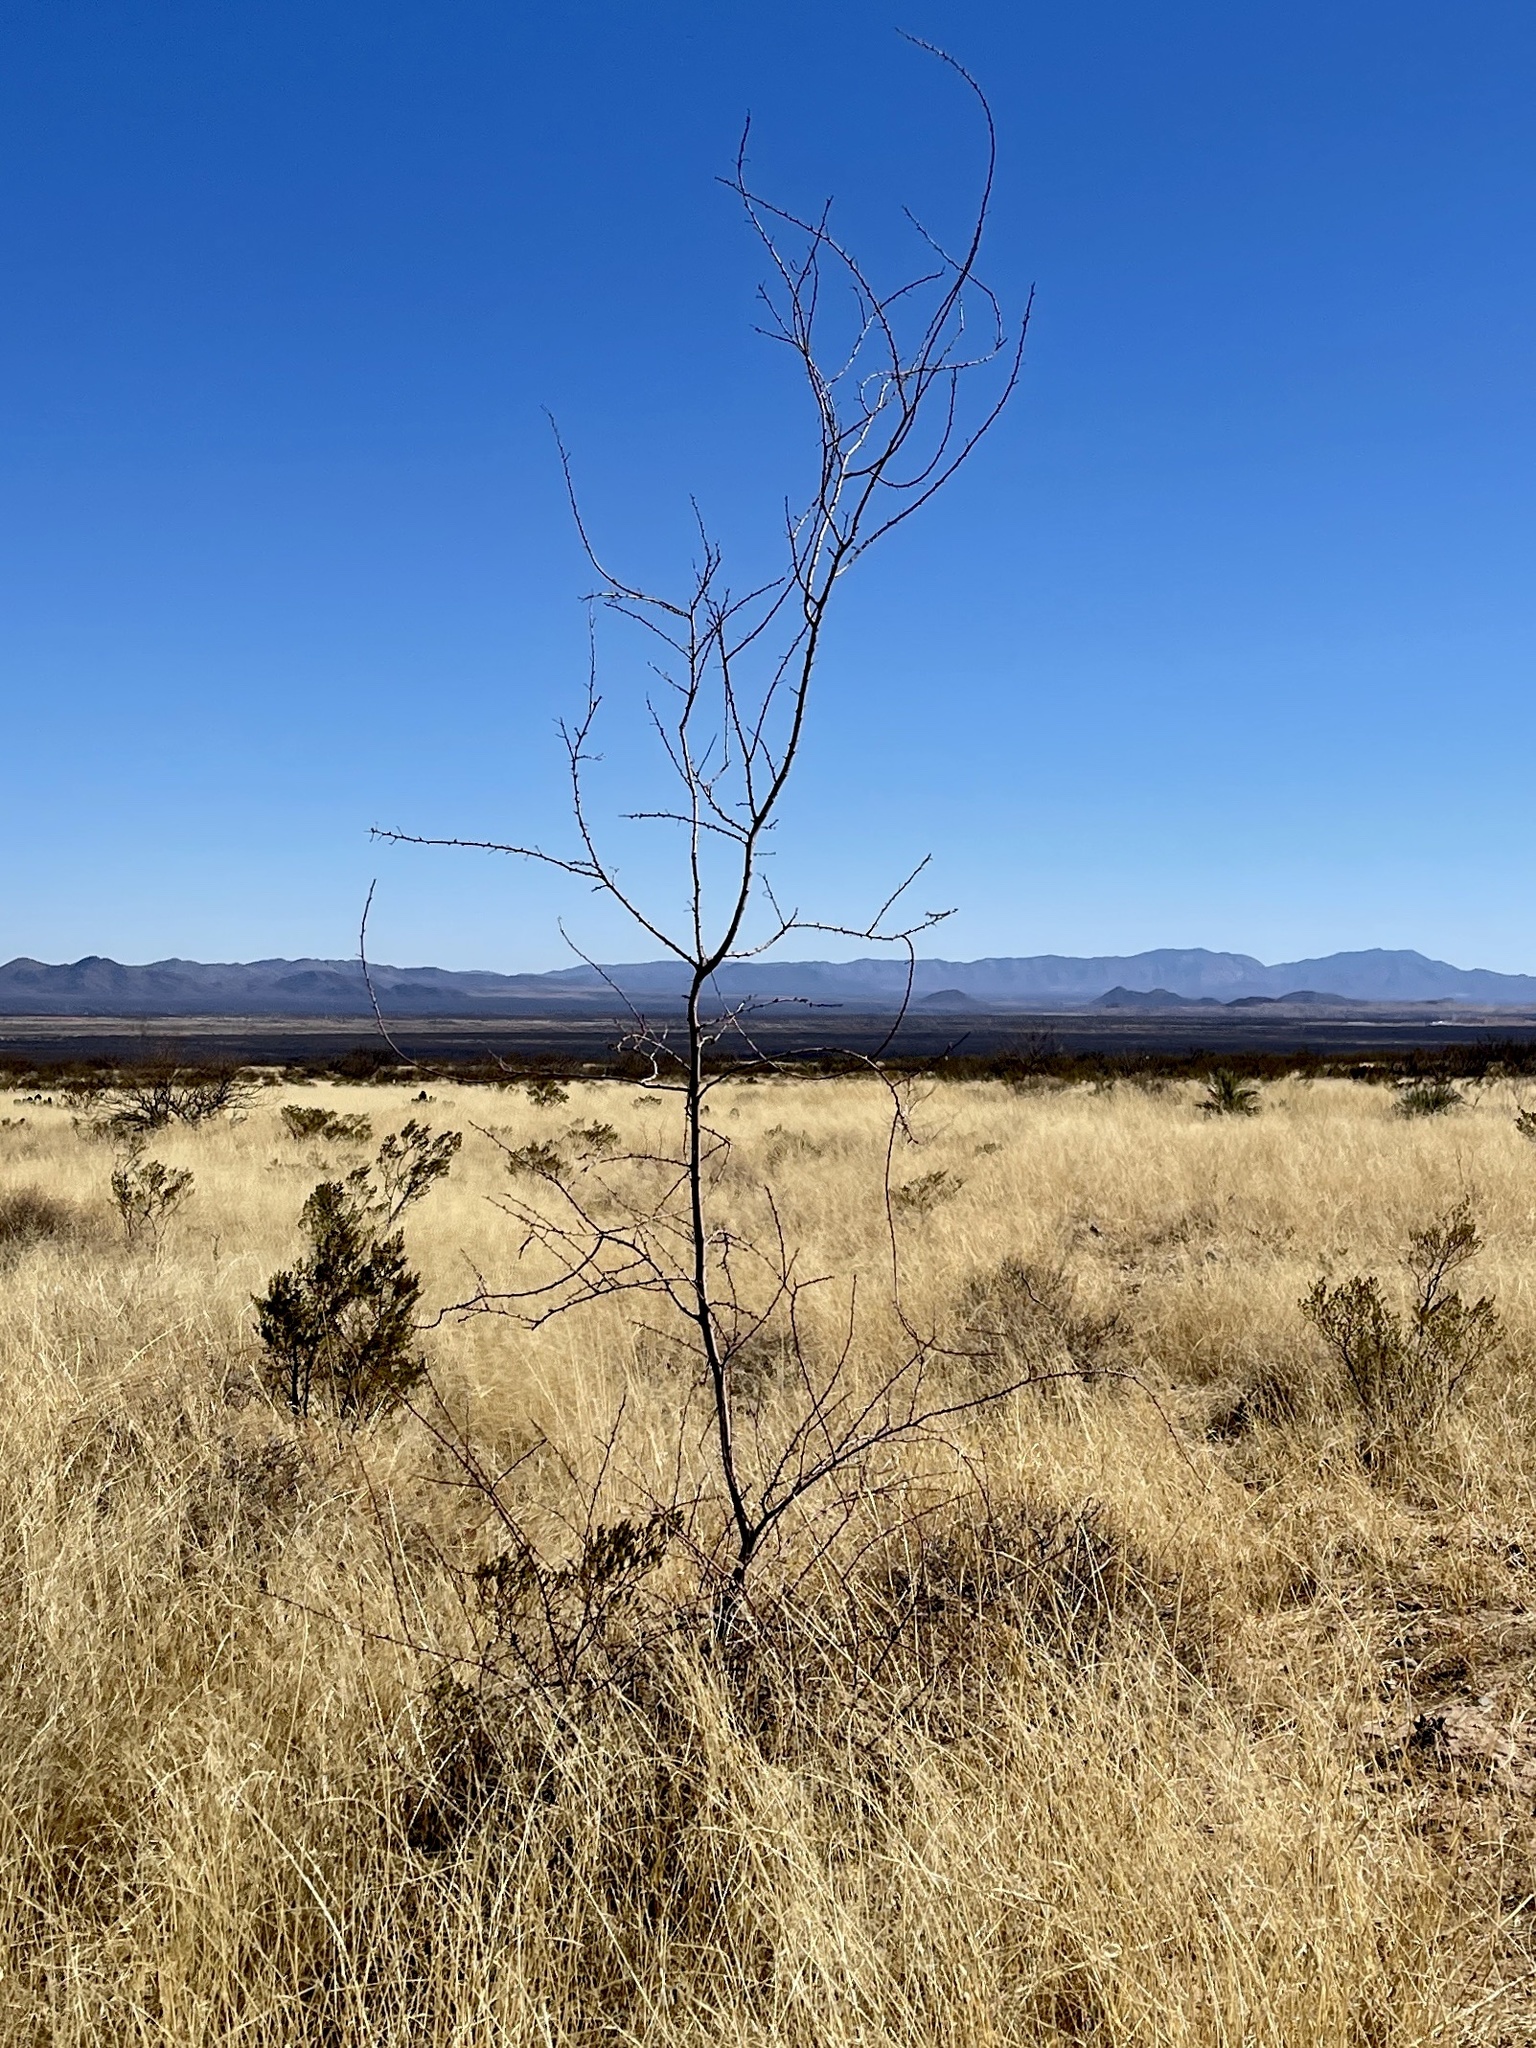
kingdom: Plantae
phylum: Tracheophyta
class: Magnoliopsida
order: Fabales
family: Fabaceae
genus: Vachellia
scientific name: Vachellia constricta
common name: Mescat acacia
